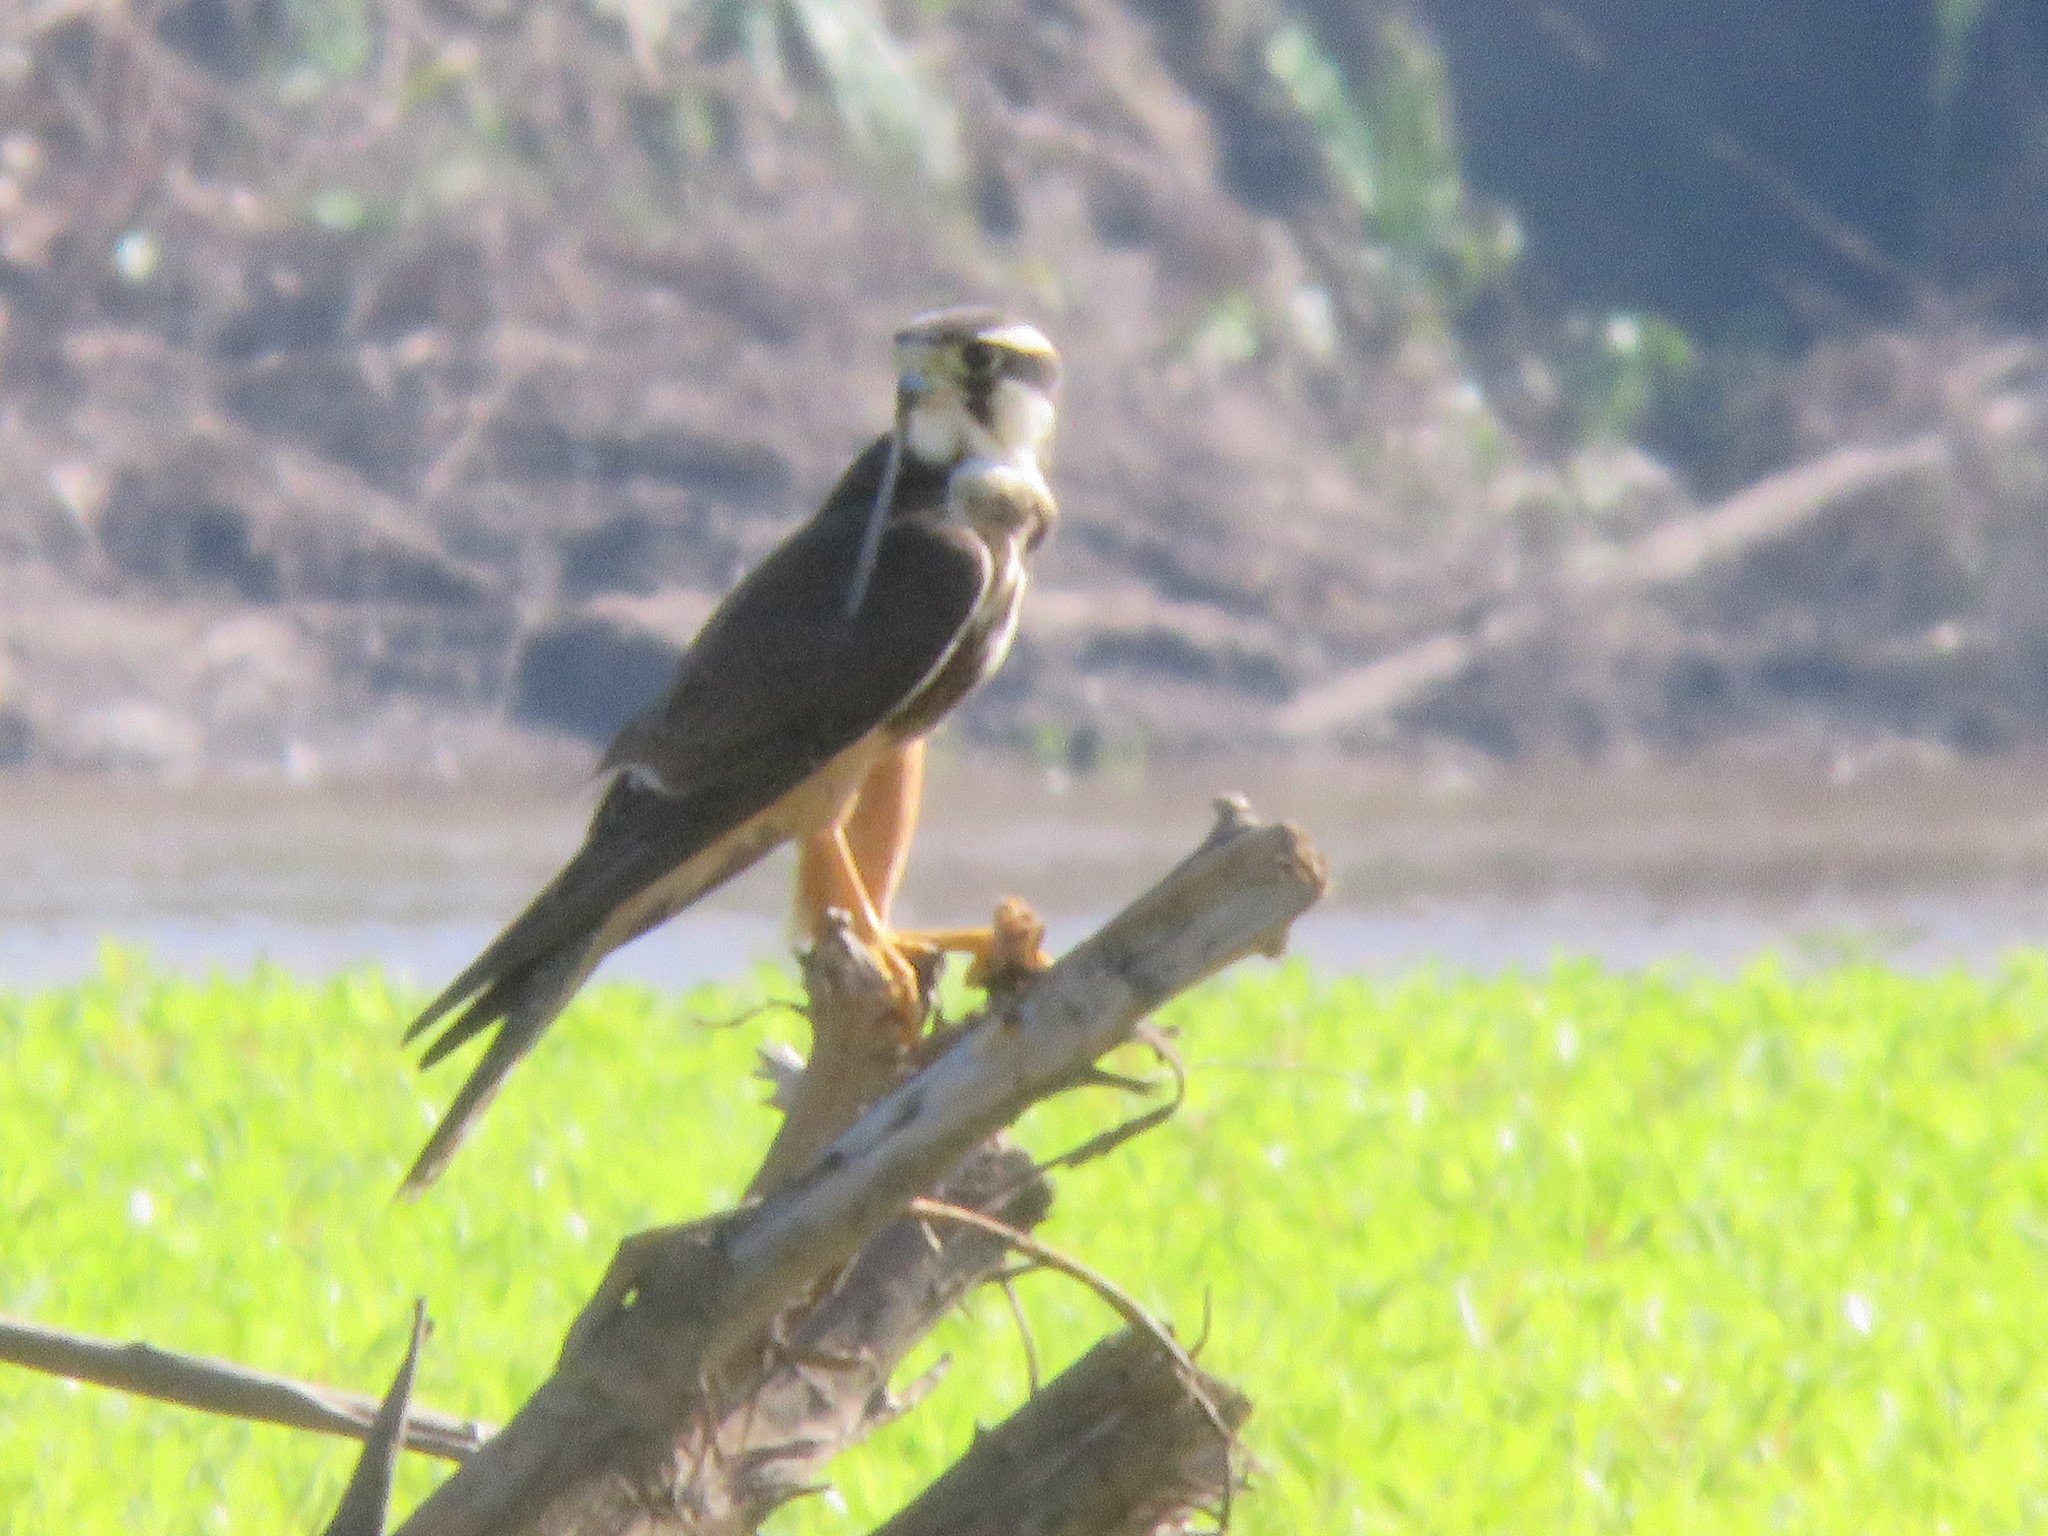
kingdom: Animalia
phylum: Chordata
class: Aves
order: Falconiformes
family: Falconidae
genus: Falco
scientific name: Falco femoralis
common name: Aplomado falcon
